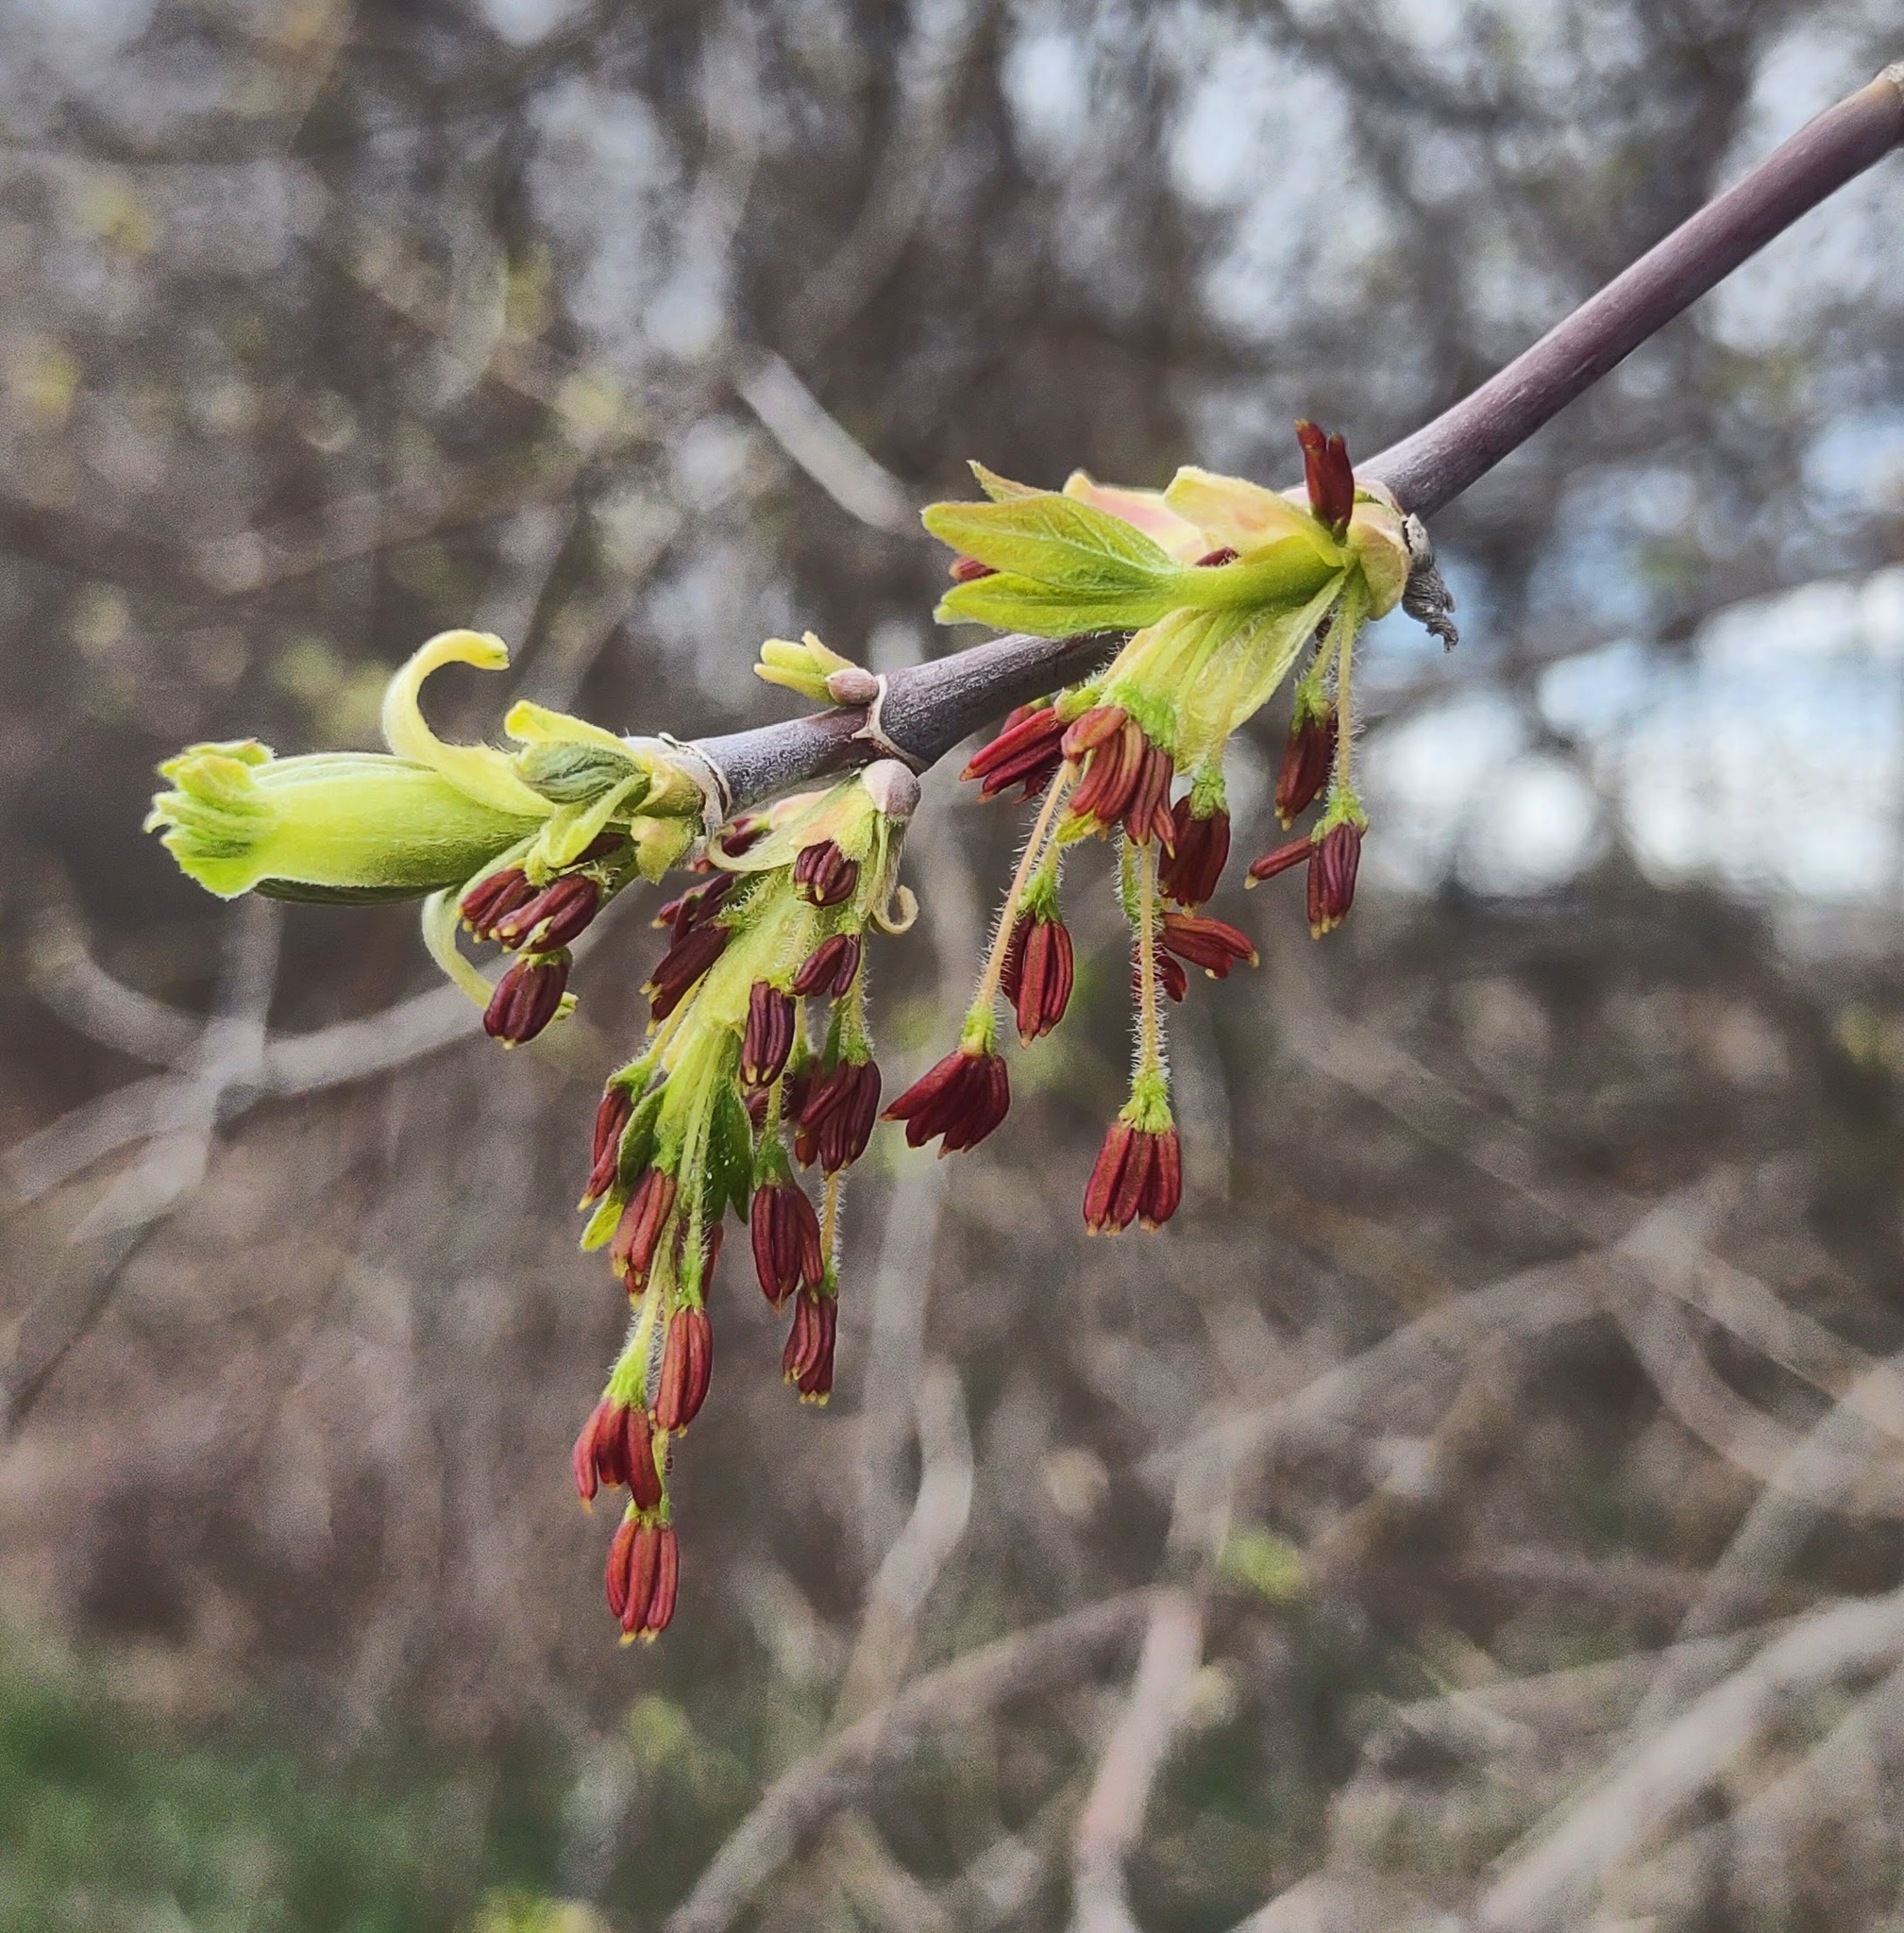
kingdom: Plantae
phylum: Tracheophyta
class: Magnoliopsida
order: Sapindales
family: Sapindaceae
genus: Acer
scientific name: Acer negundo
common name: Ashleaf maple
